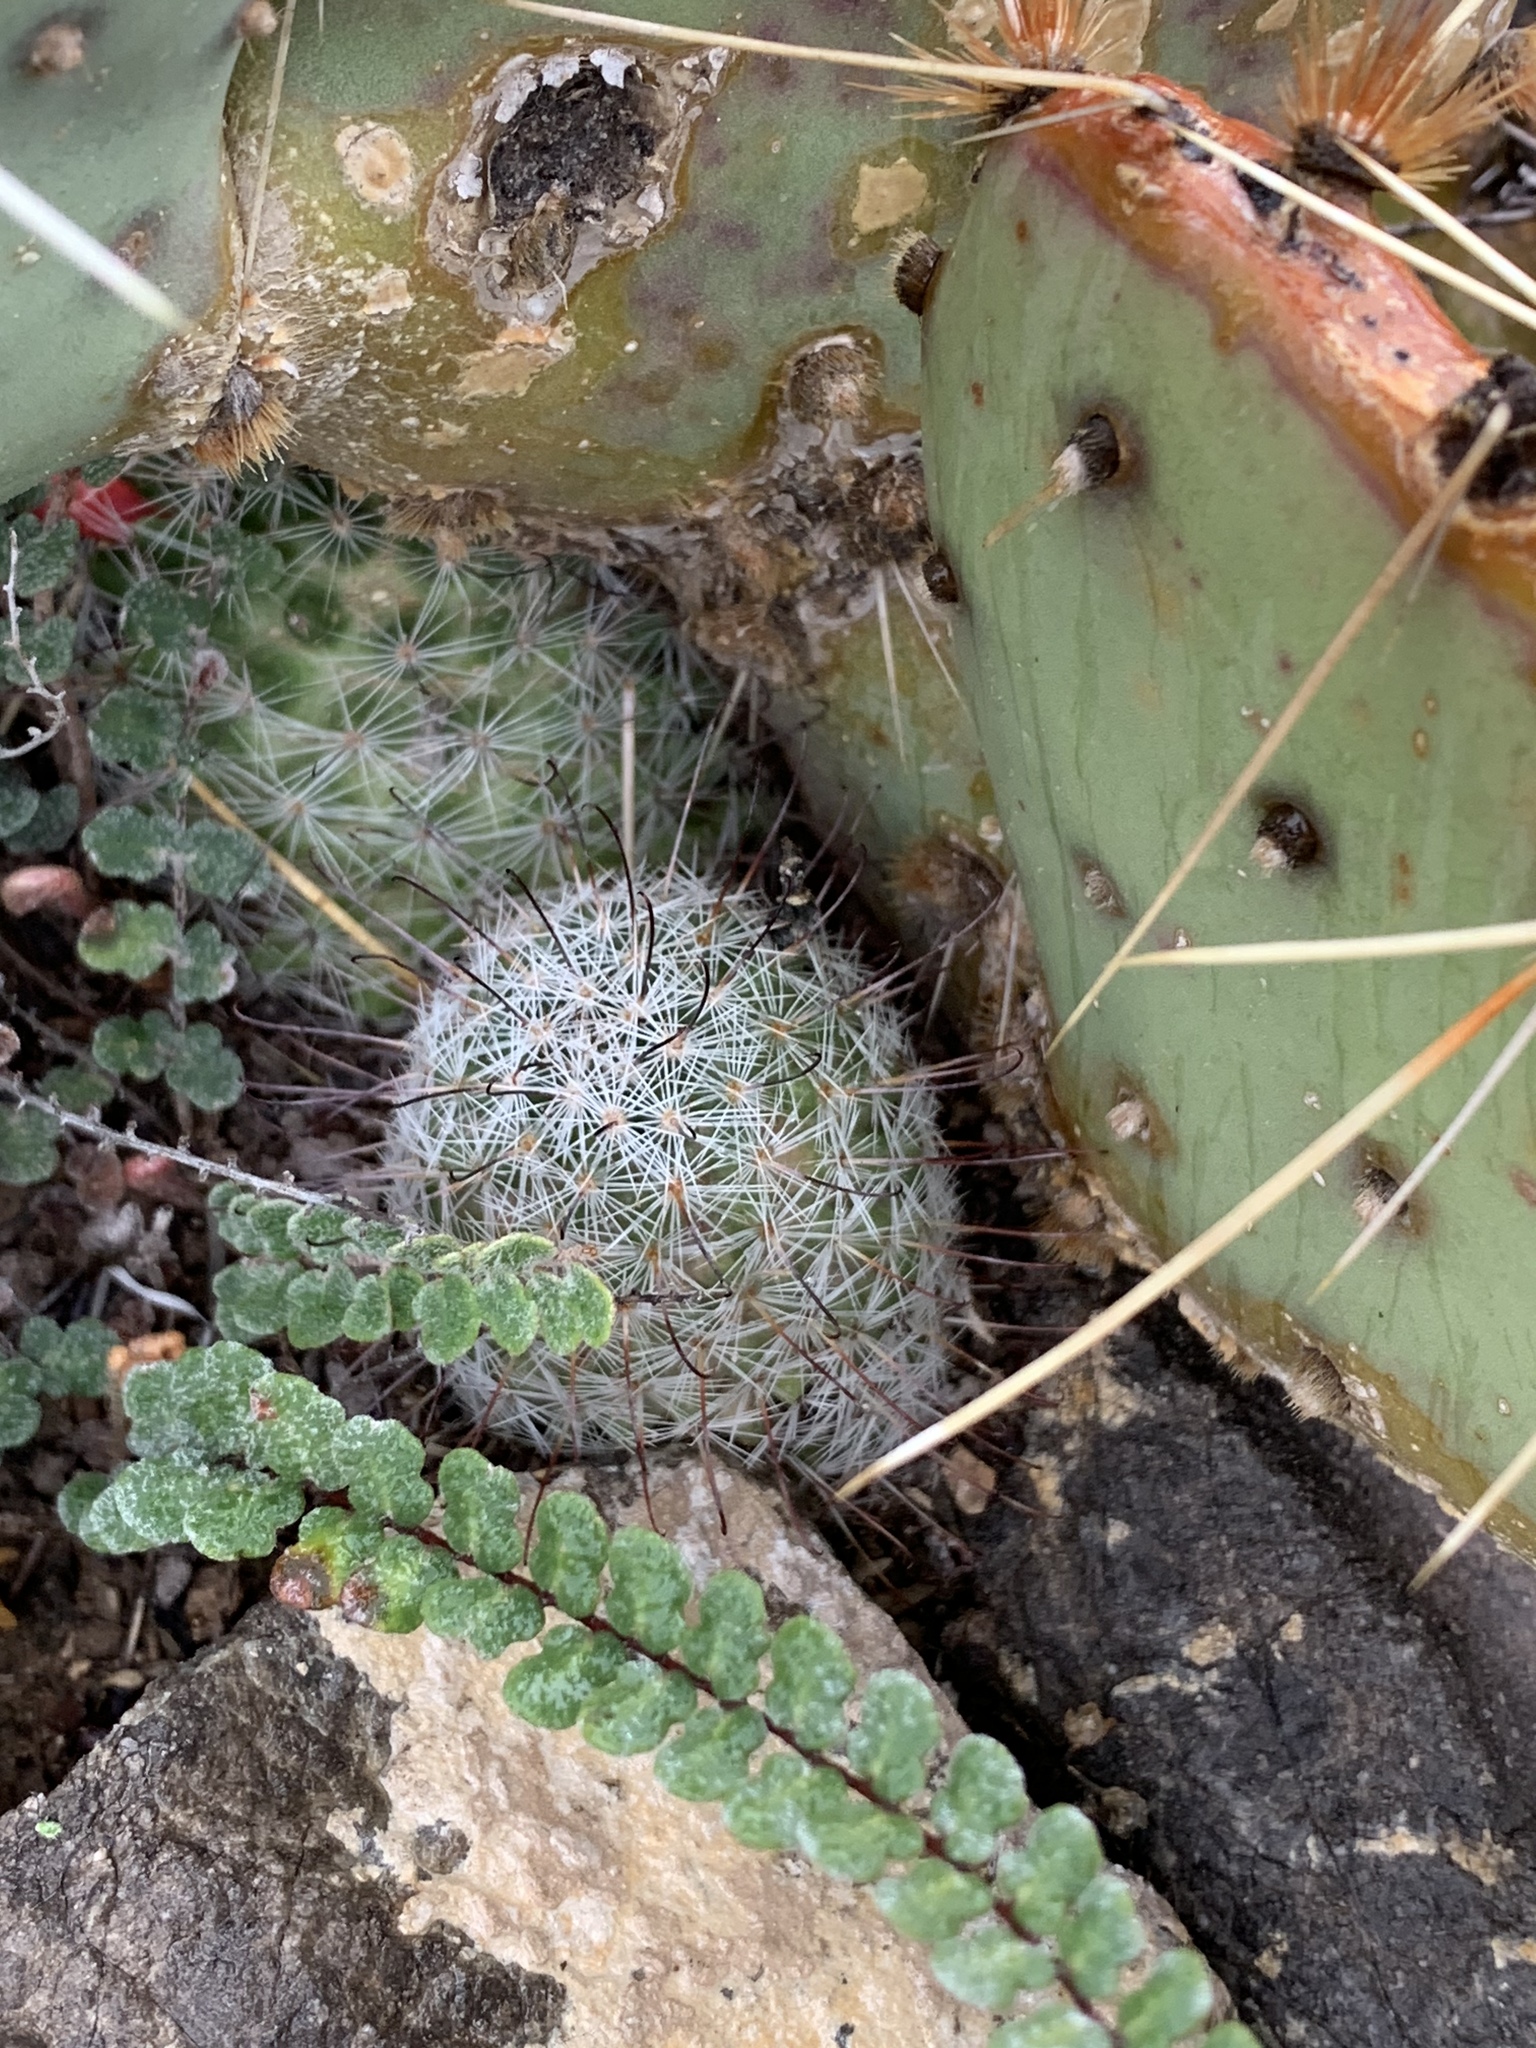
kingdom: Plantae
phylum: Tracheophyta
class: Magnoliopsida
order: Caryophyllales
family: Cactaceae
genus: Cochemiea
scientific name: Cochemiea grahamii
